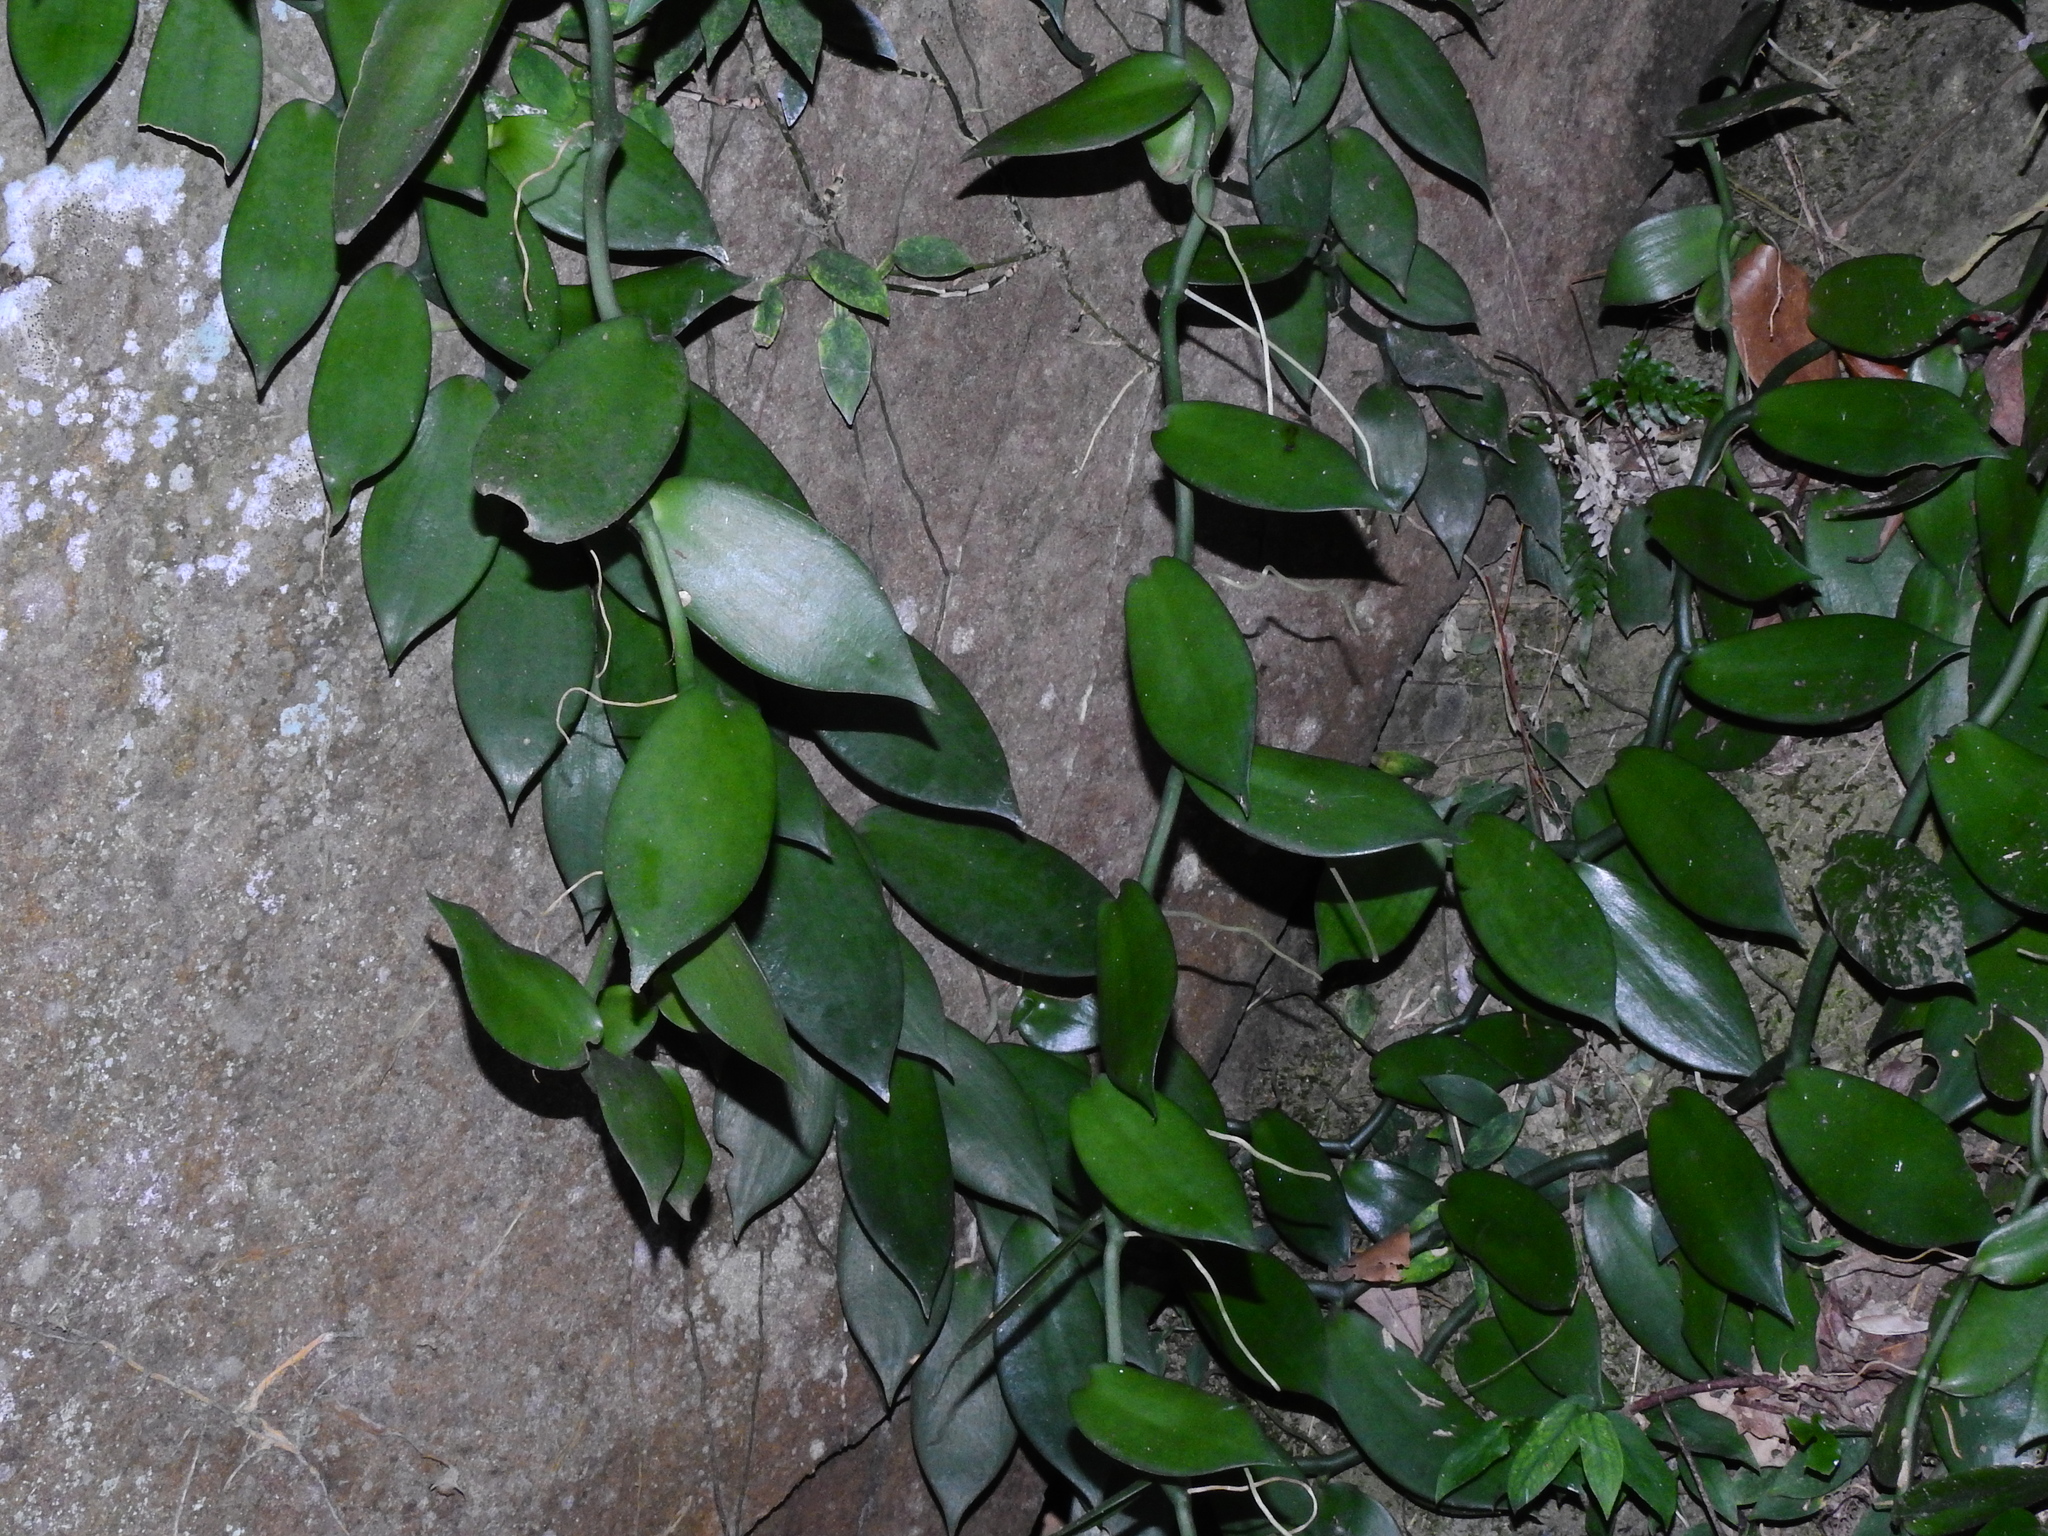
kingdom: Plantae
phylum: Tracheophyta
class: Liliopsida
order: Asparagales
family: Orchidaceae
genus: Vanilla
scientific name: Vanilla somae
